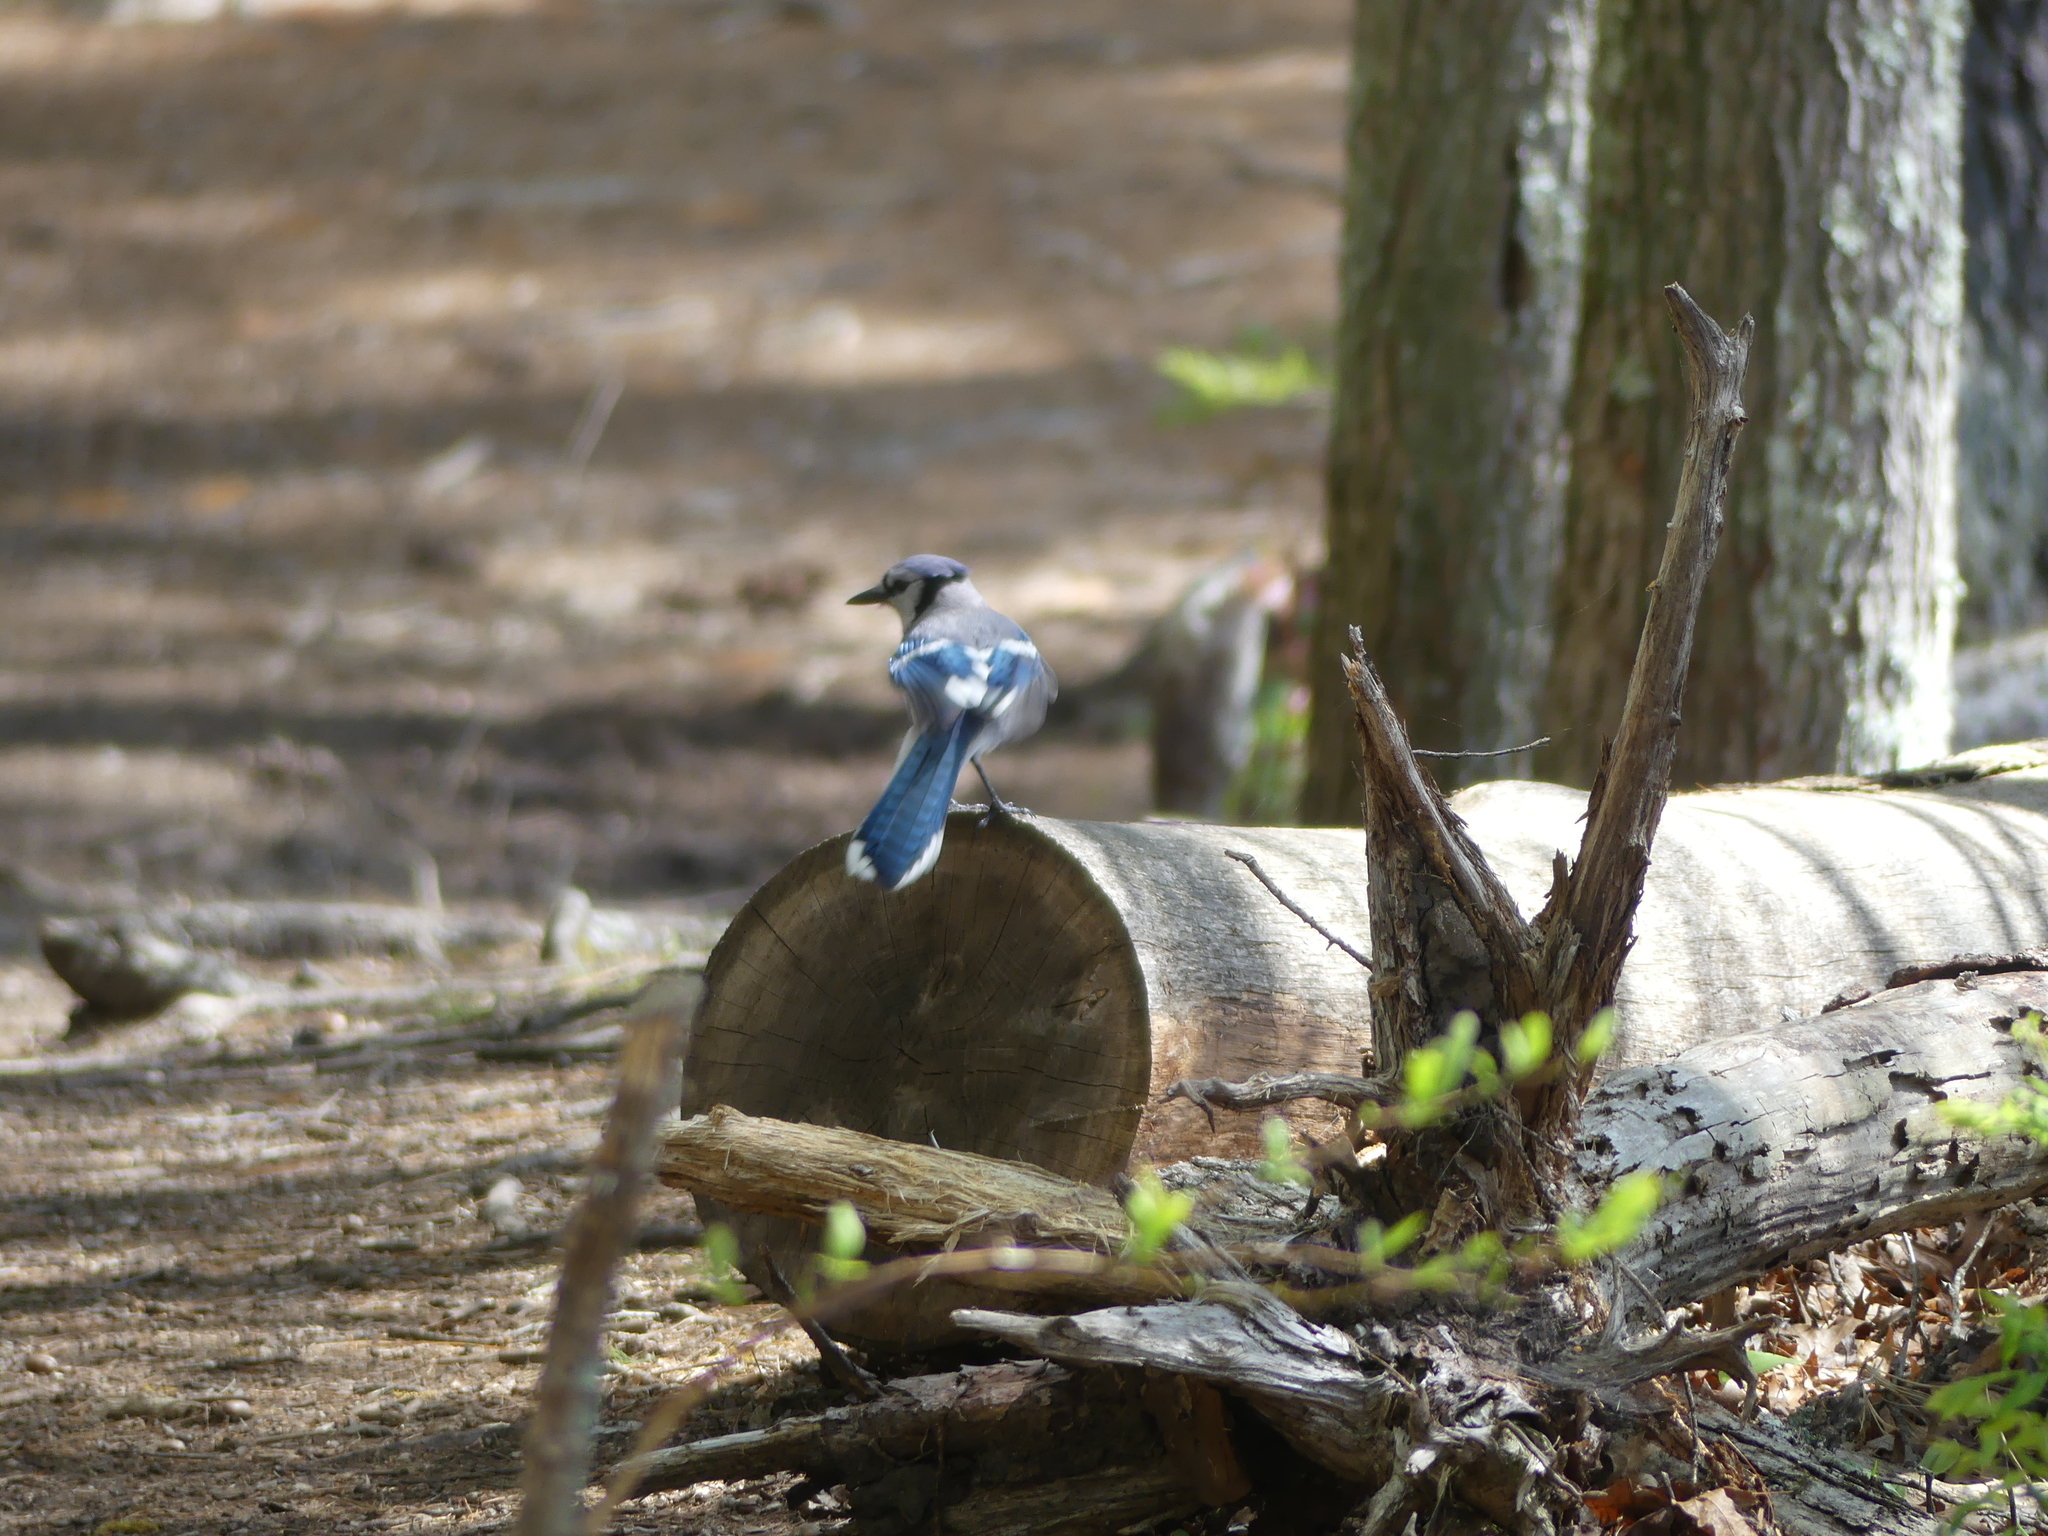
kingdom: Animalia
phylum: Chordata
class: Aves
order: Passeriformes
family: Corvidae
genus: Cyanocitta
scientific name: Cyanocitta cristata
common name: Blue jay
